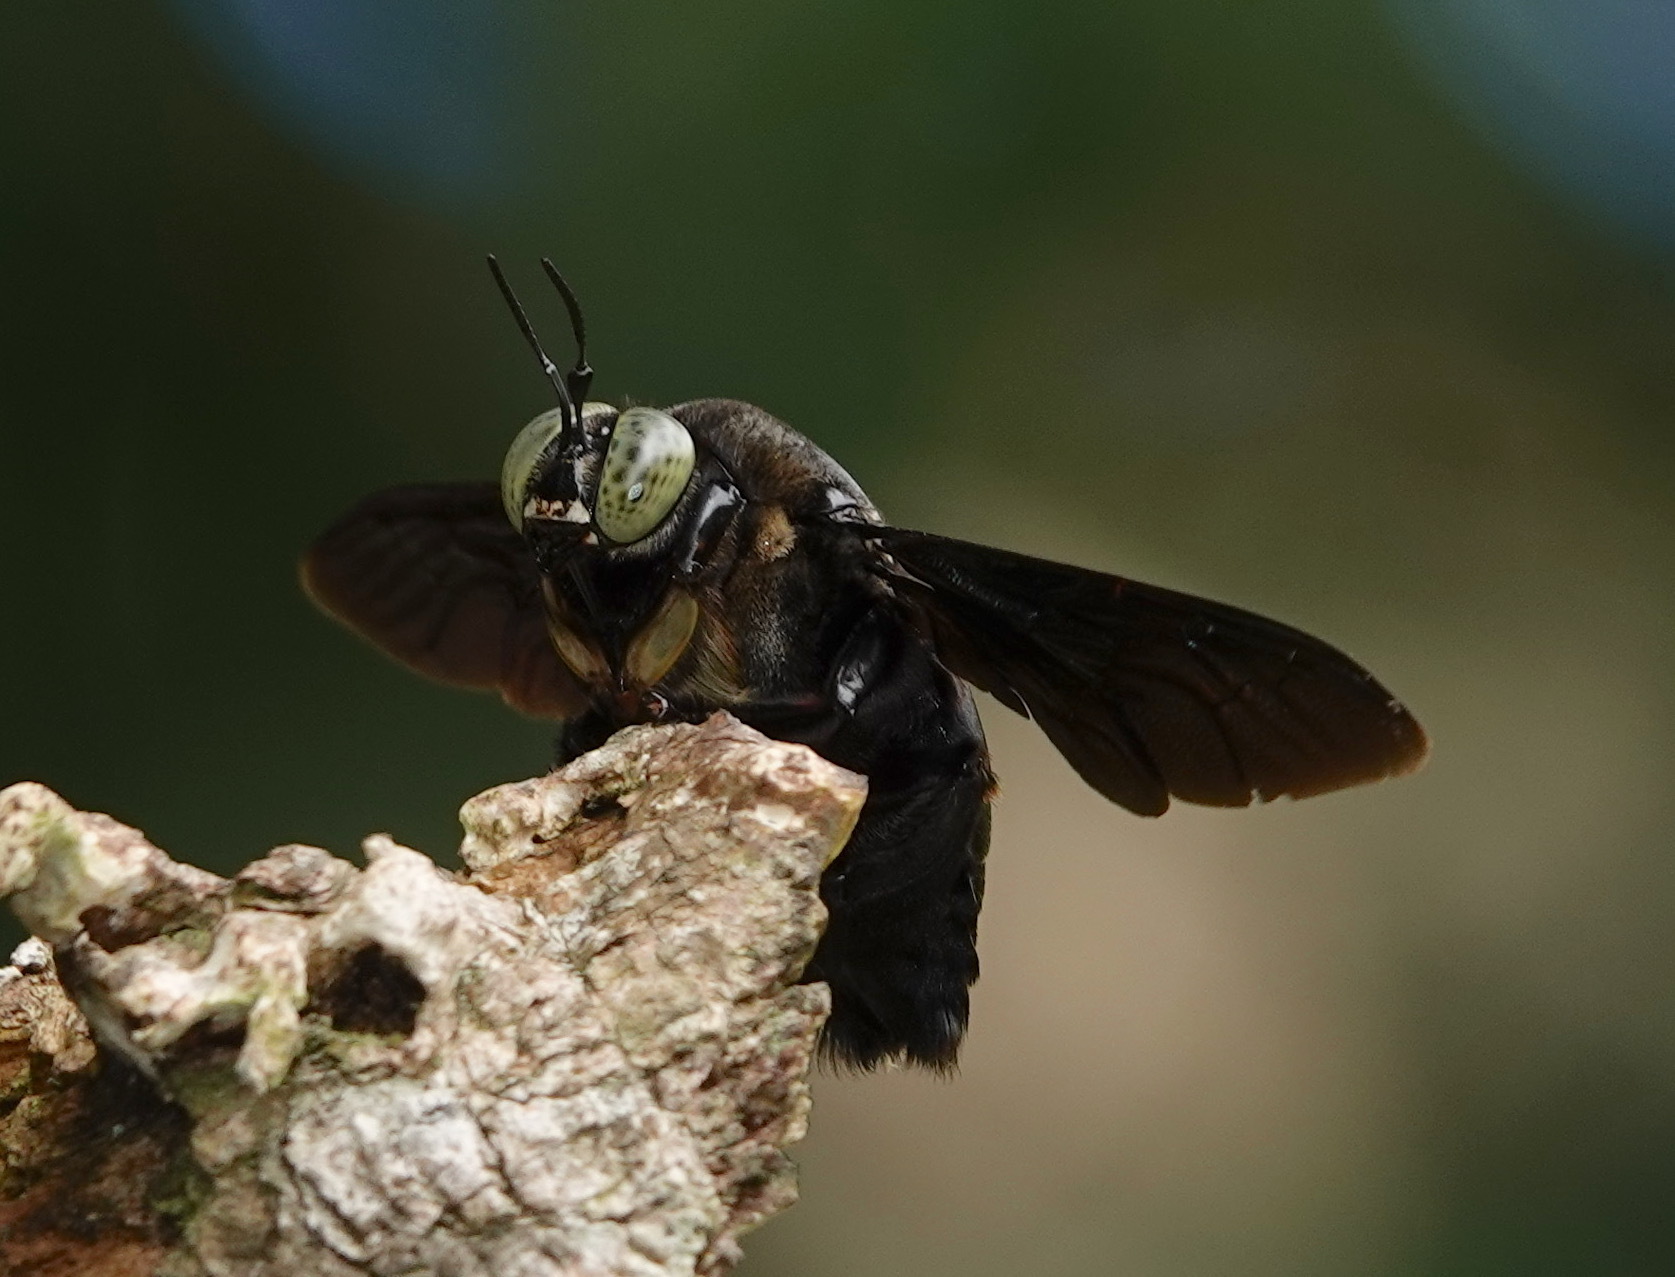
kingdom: Animalia
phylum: Arthropoda
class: Insecta
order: Hymenoptera
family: Apidae
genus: Xylocopa
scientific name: Xylocopa latipes
